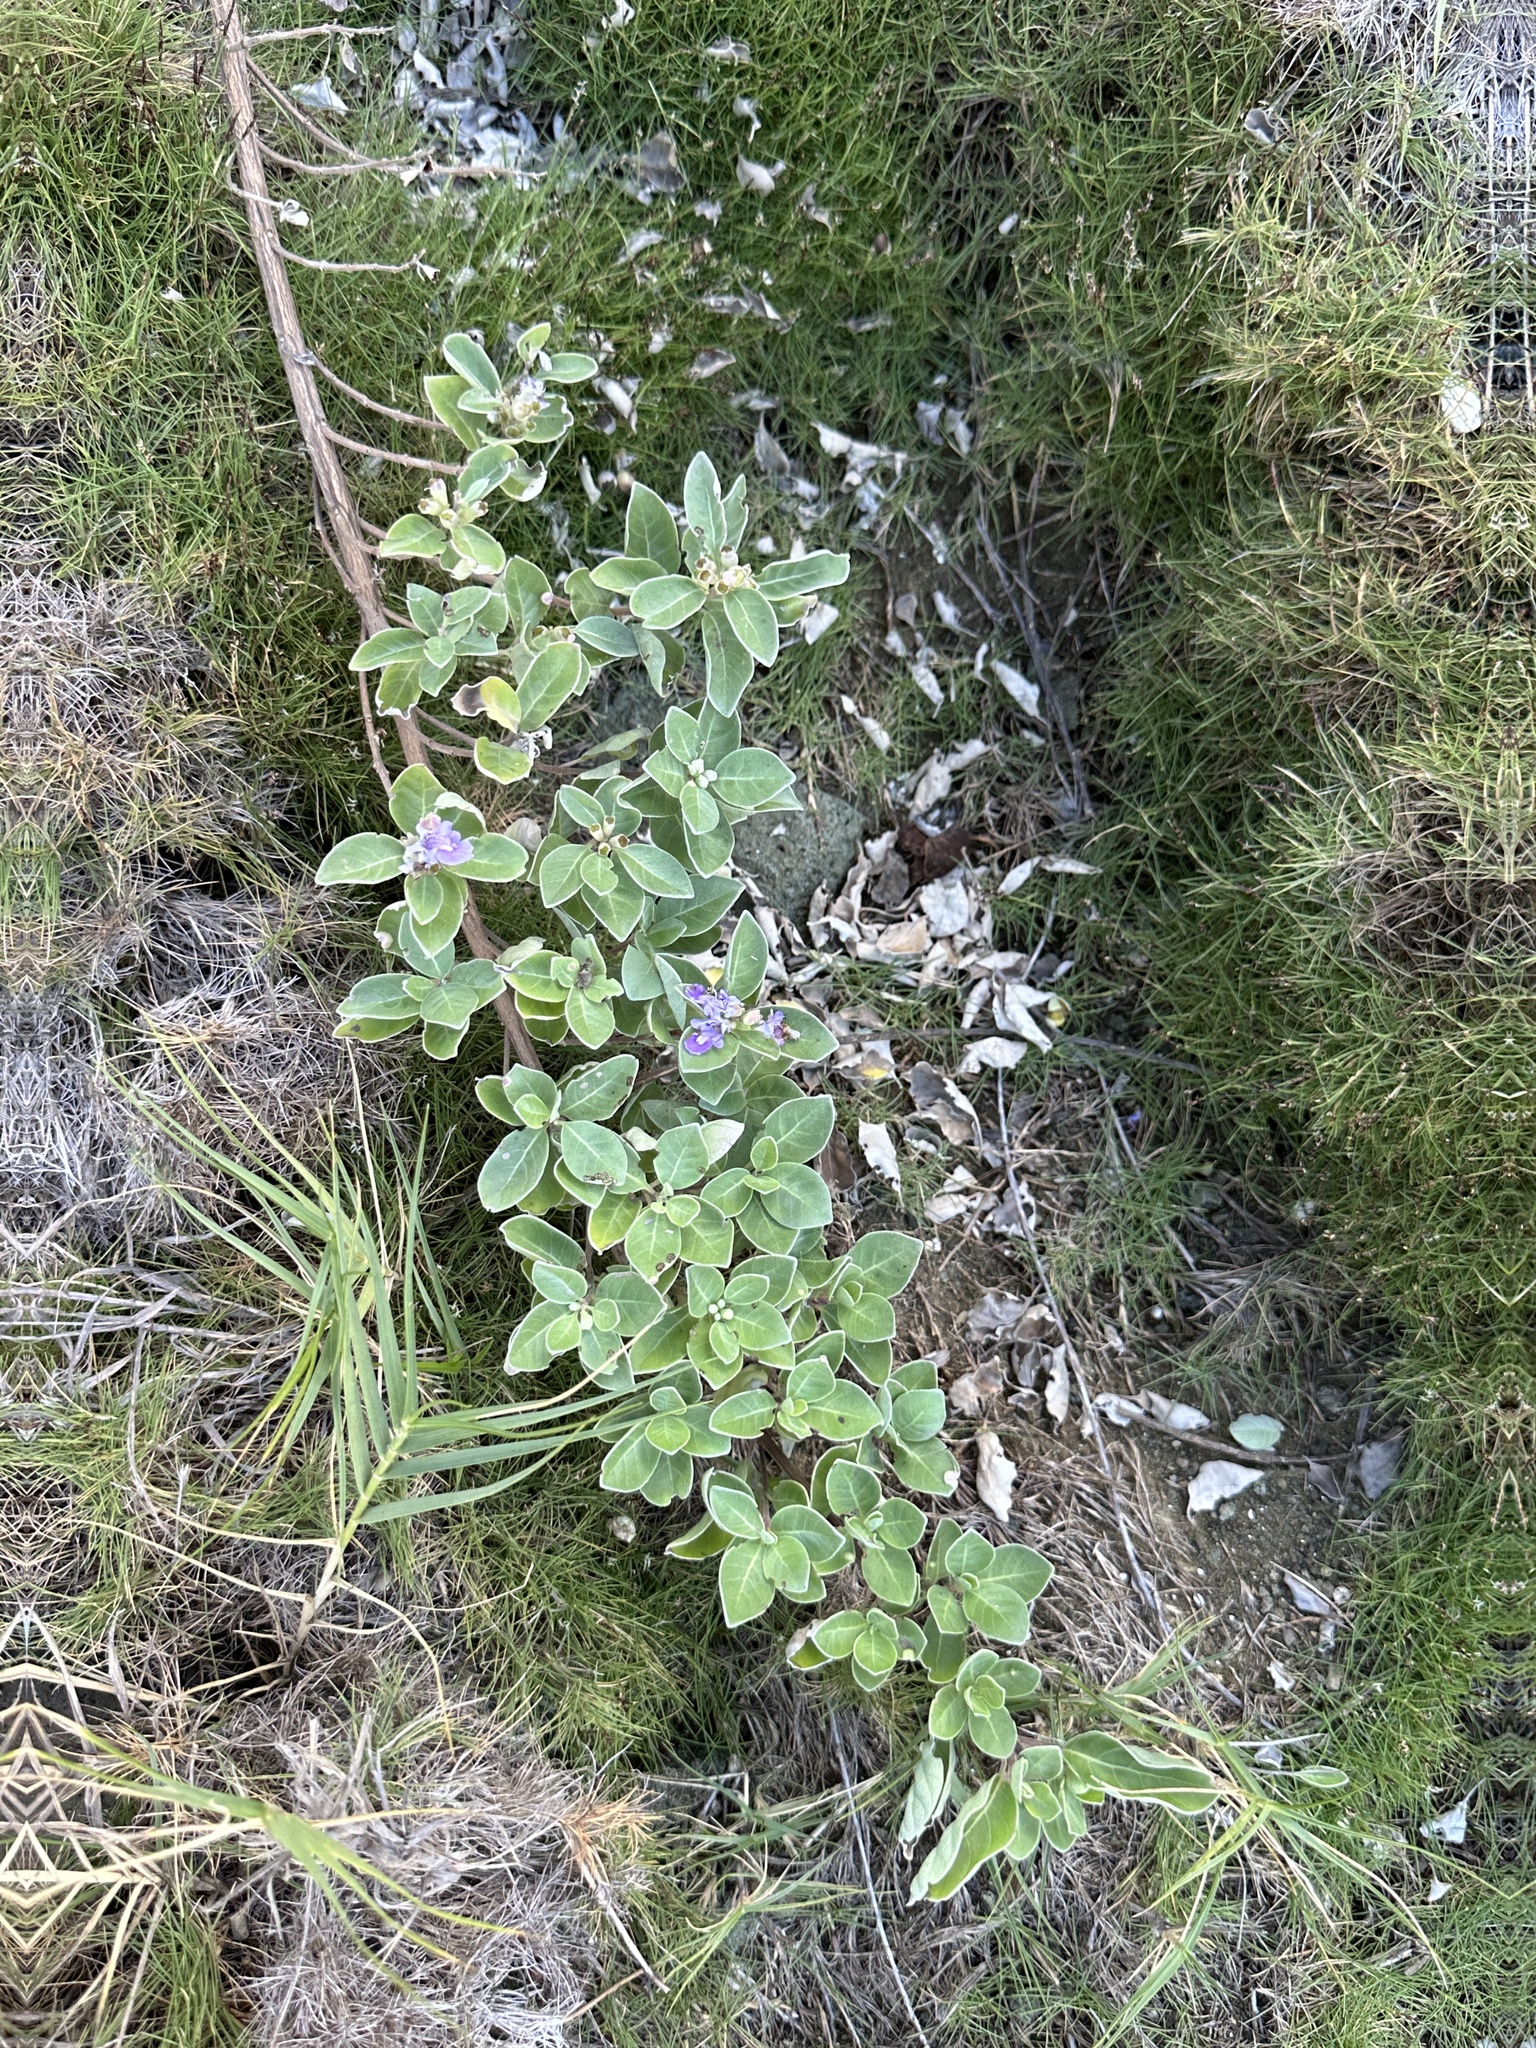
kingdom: Plantae
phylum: Tracheophyta
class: Magnoliopsida
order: Lamiales
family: Lamiaceae
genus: Vitex
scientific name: Vitex rotundifolia
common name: Beach vitex
